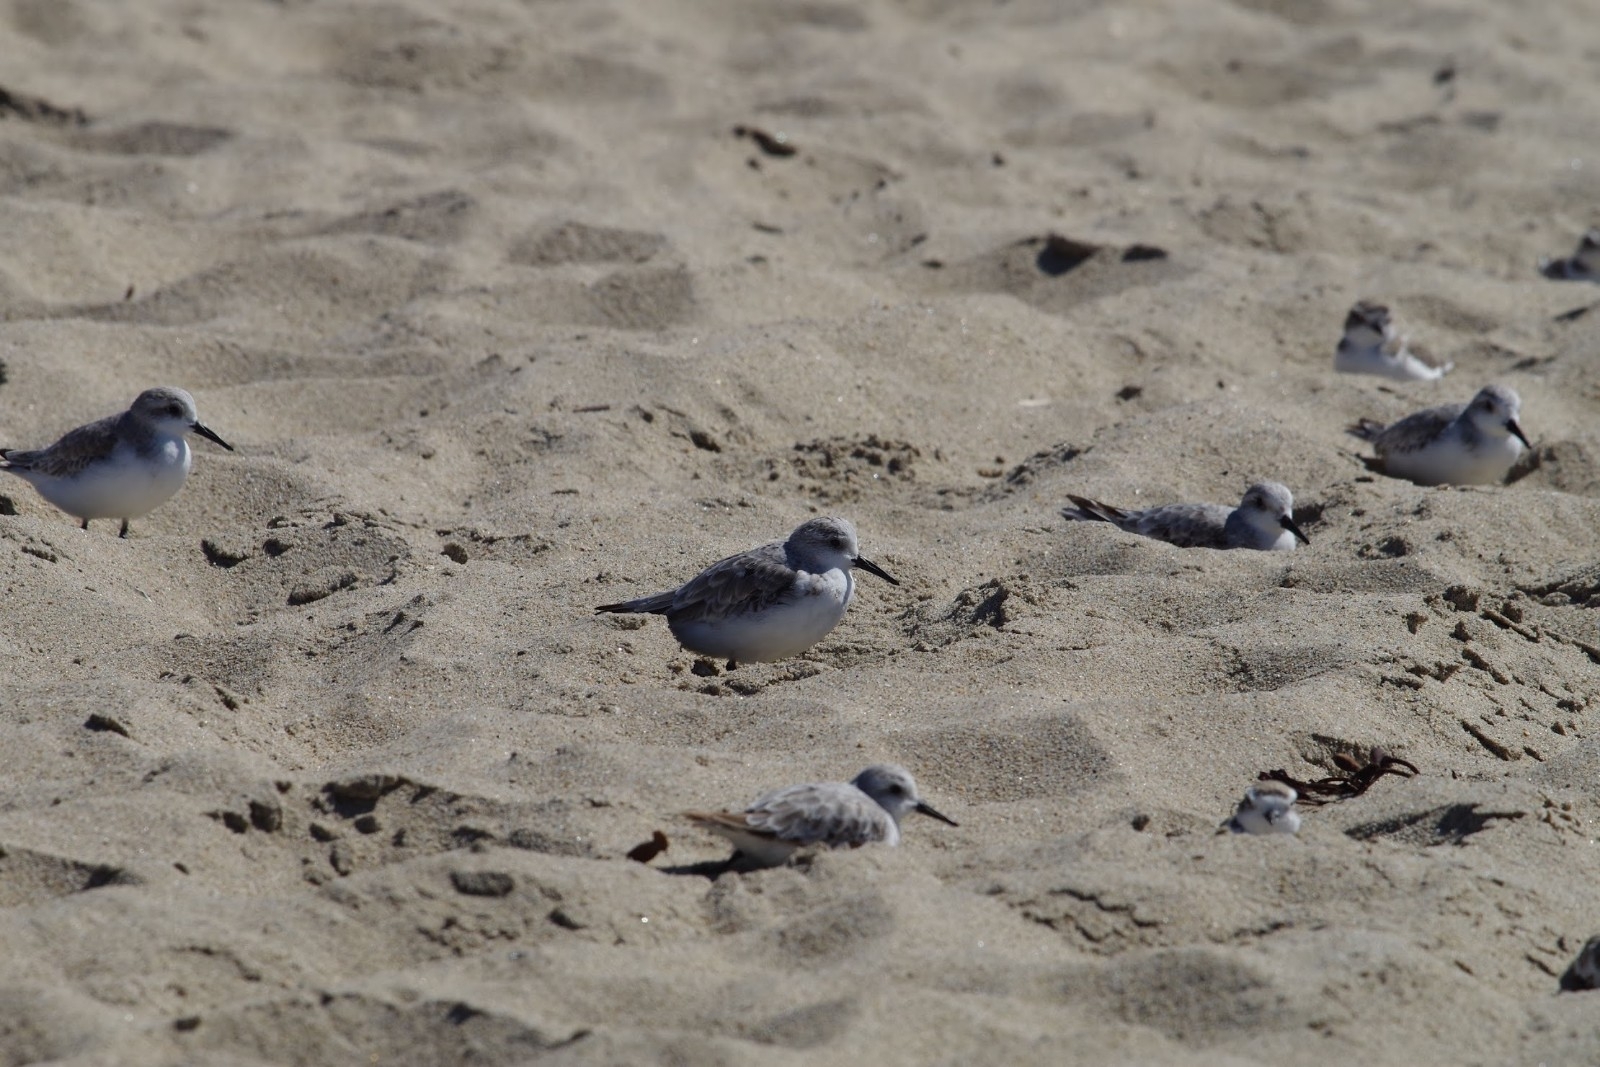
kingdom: Animalia
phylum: Chordata
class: Aves
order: Charadriiformes
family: Scolopacidae
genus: Calidris
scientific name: Calidris alba
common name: Sanderling
